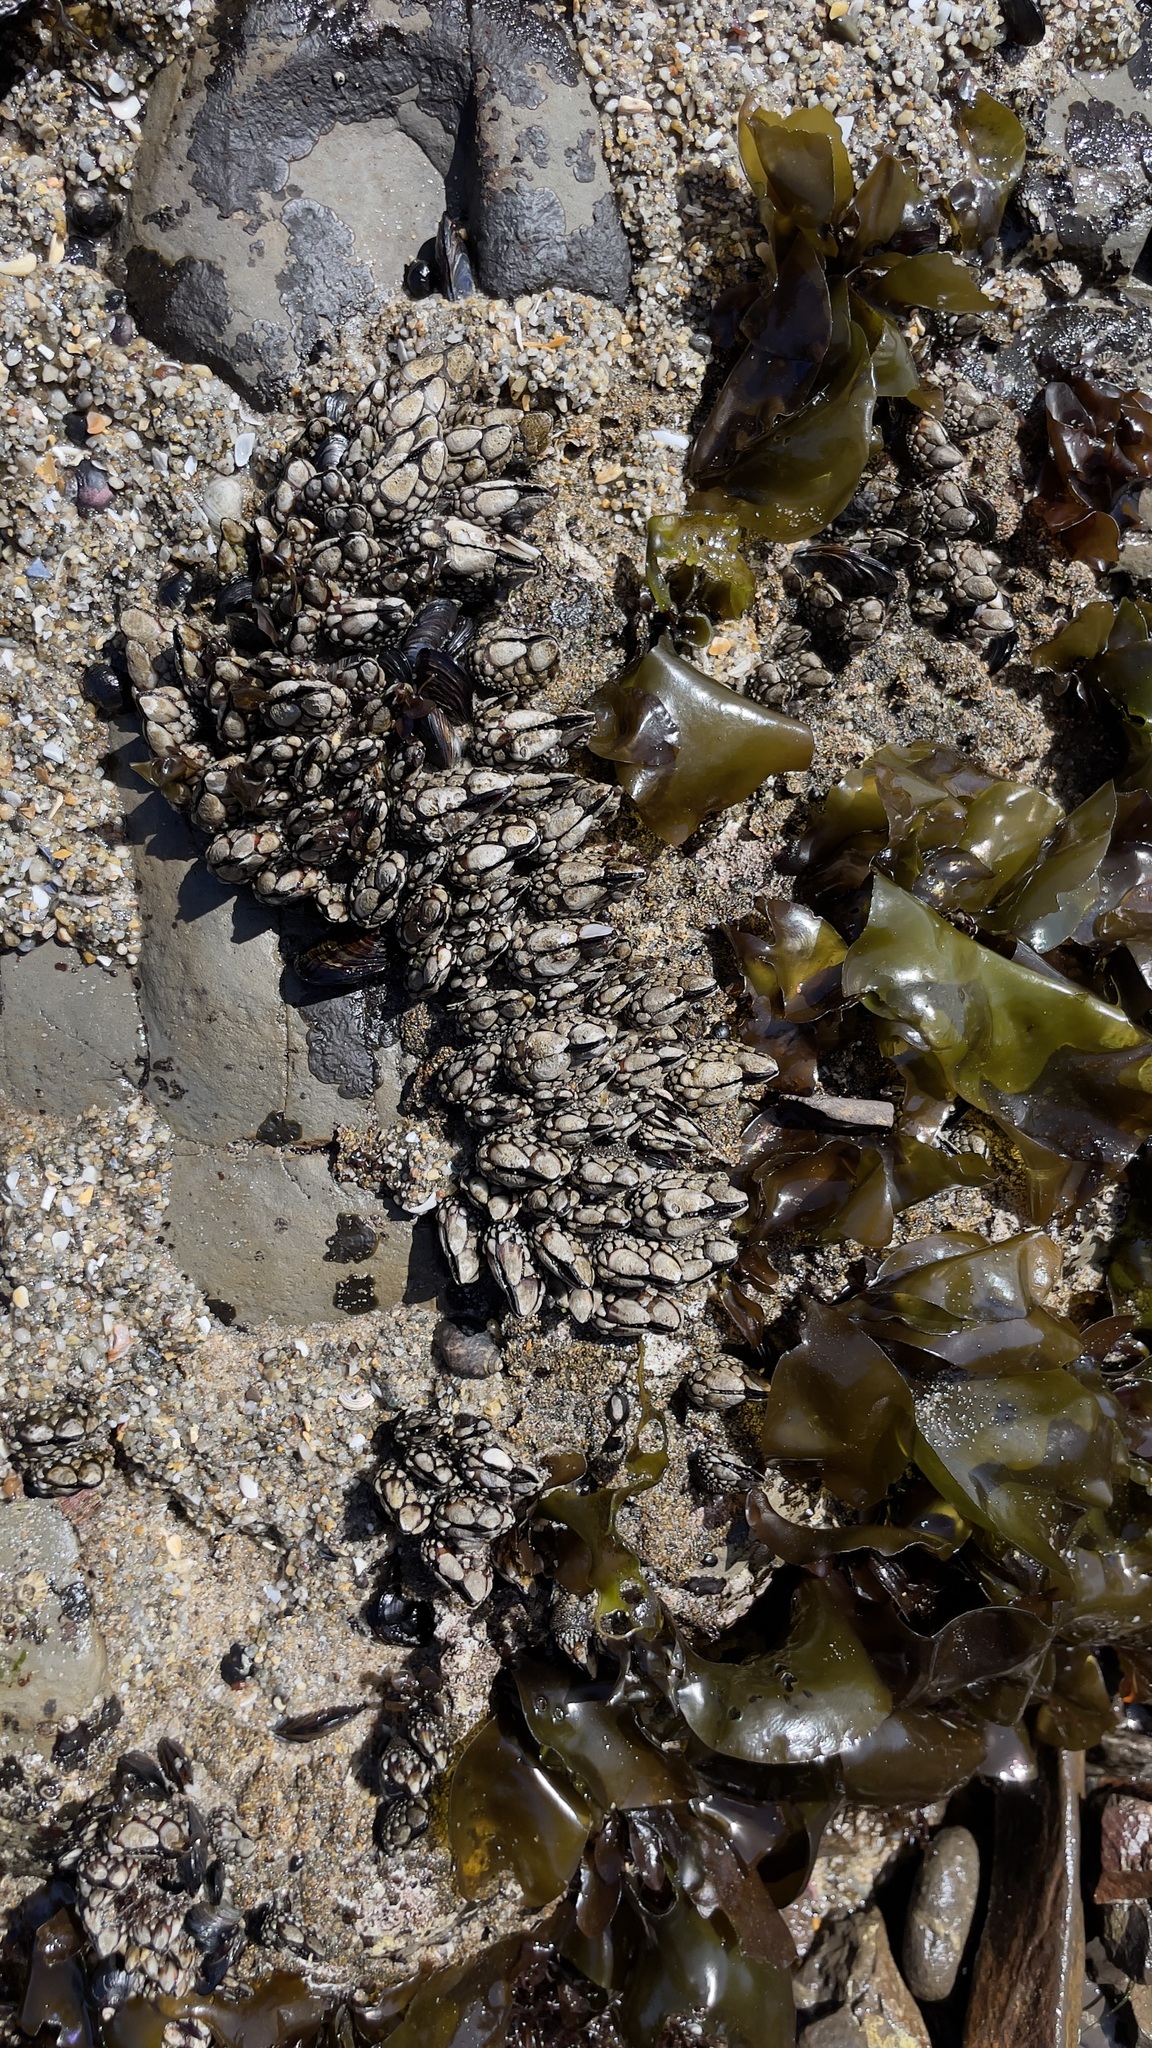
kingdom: Animalia
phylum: Arthropoda
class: Maxillopoda
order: Pedunculata
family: Pollicipedidae
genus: Pollicipes
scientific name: Pollicipes polymerus
